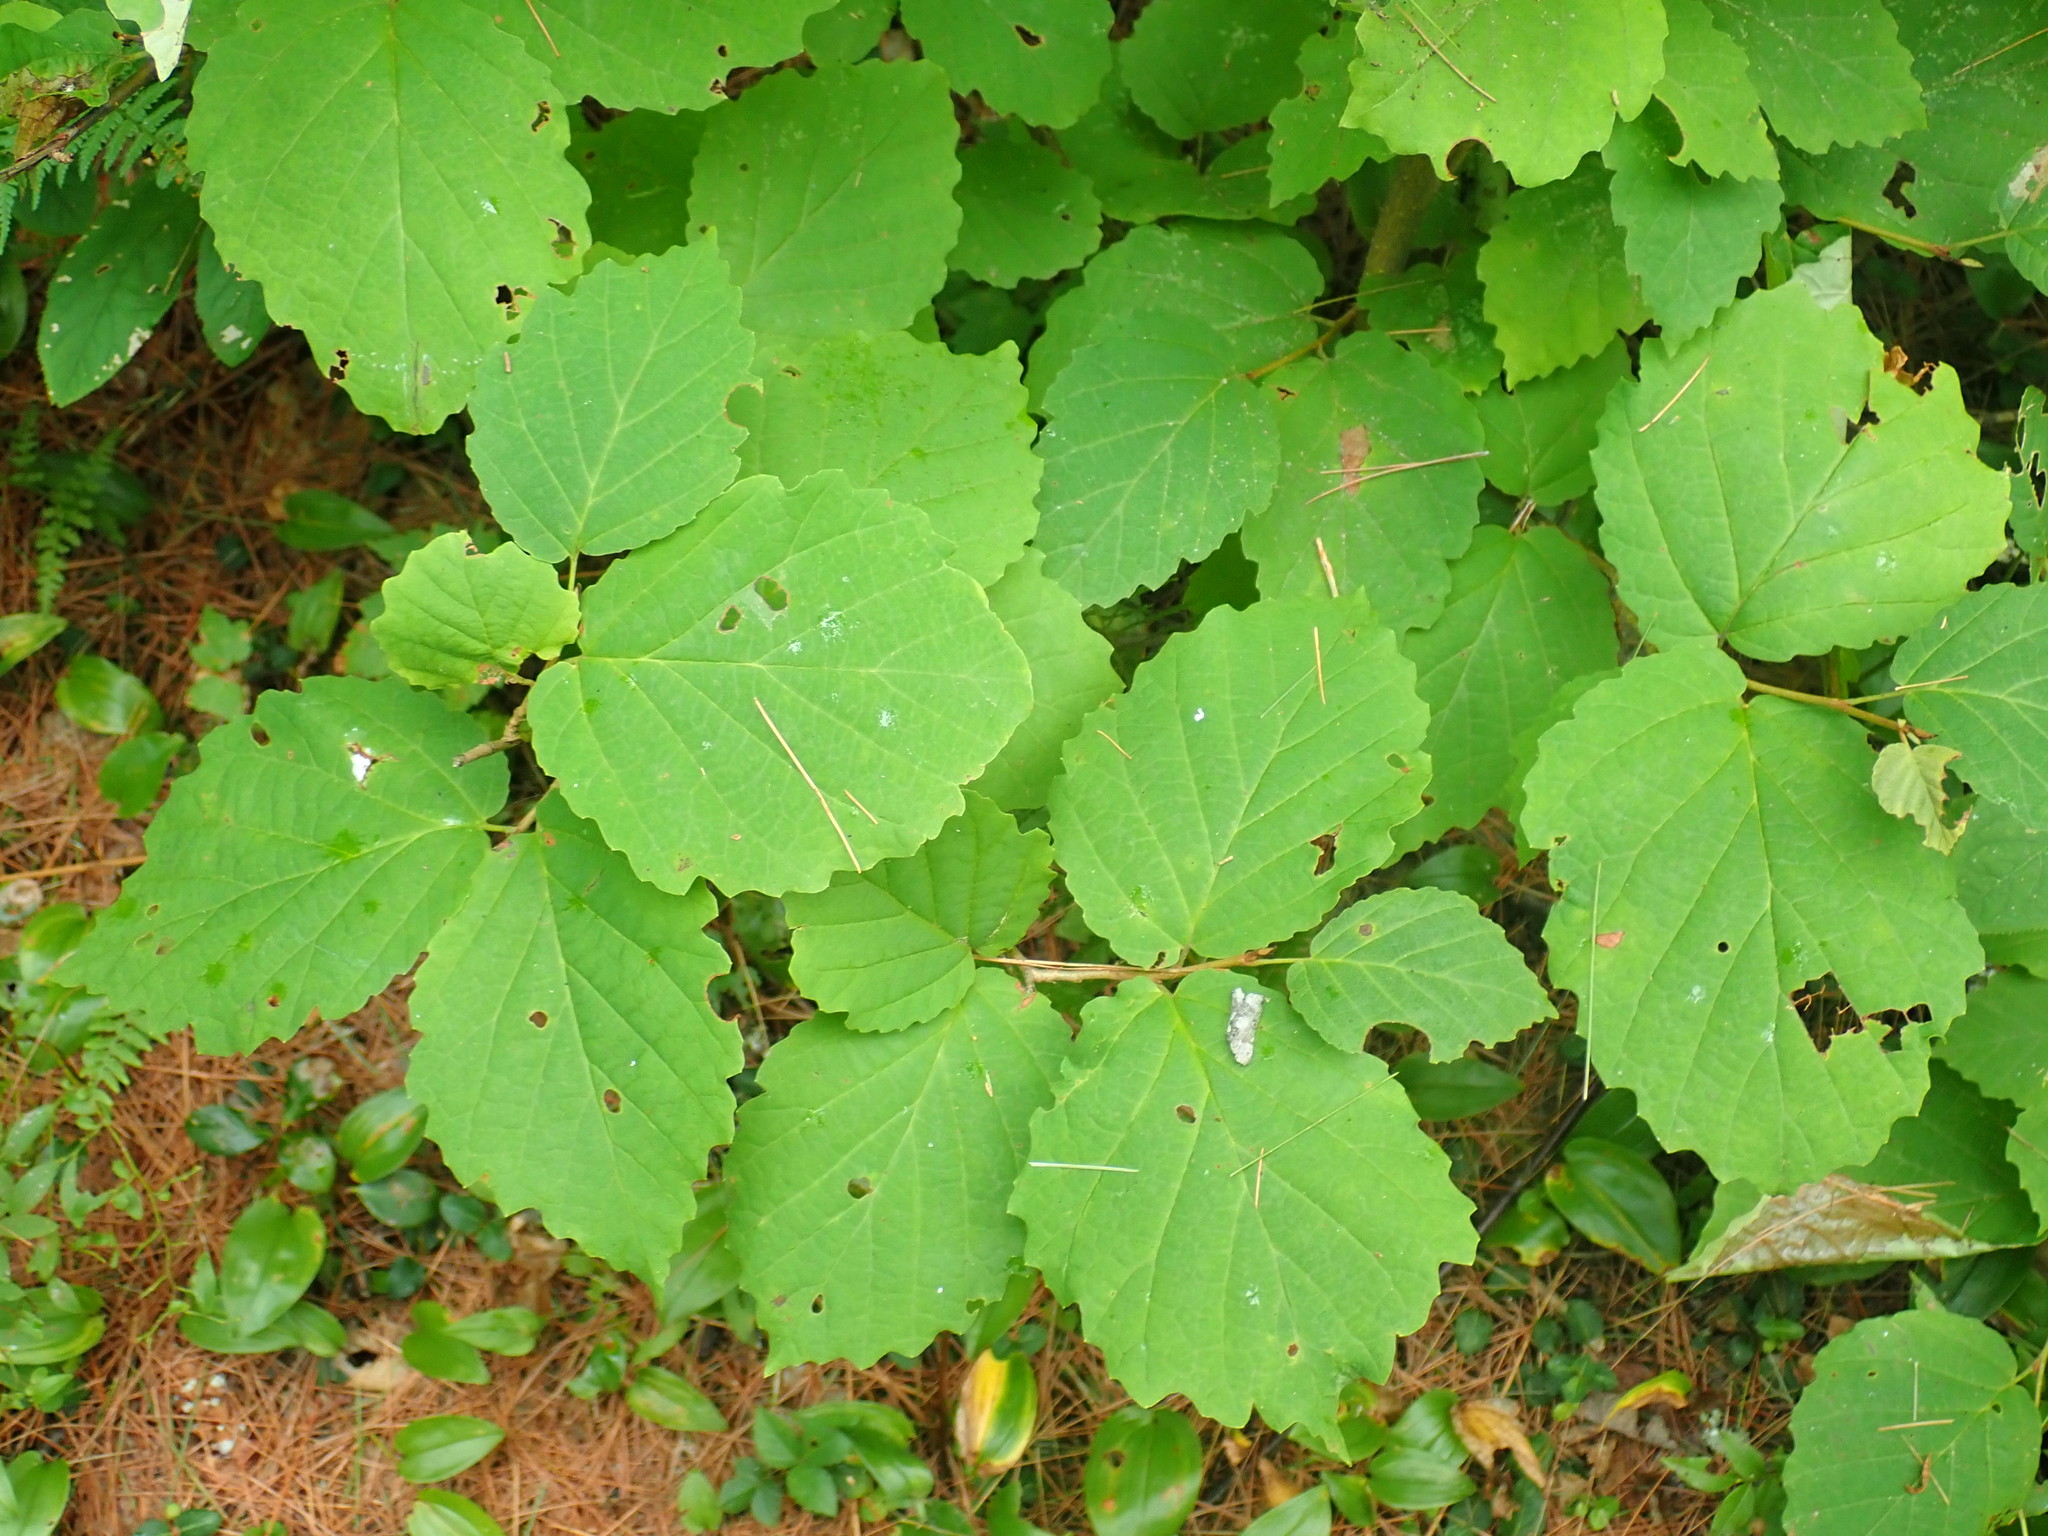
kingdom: Plantae
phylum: Tracheophyta
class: Magnoliopsida
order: Saxifragales
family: Hamamelidaceae
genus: Hamamelis
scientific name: Hamamelis virginiana
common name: Witch-hazel
